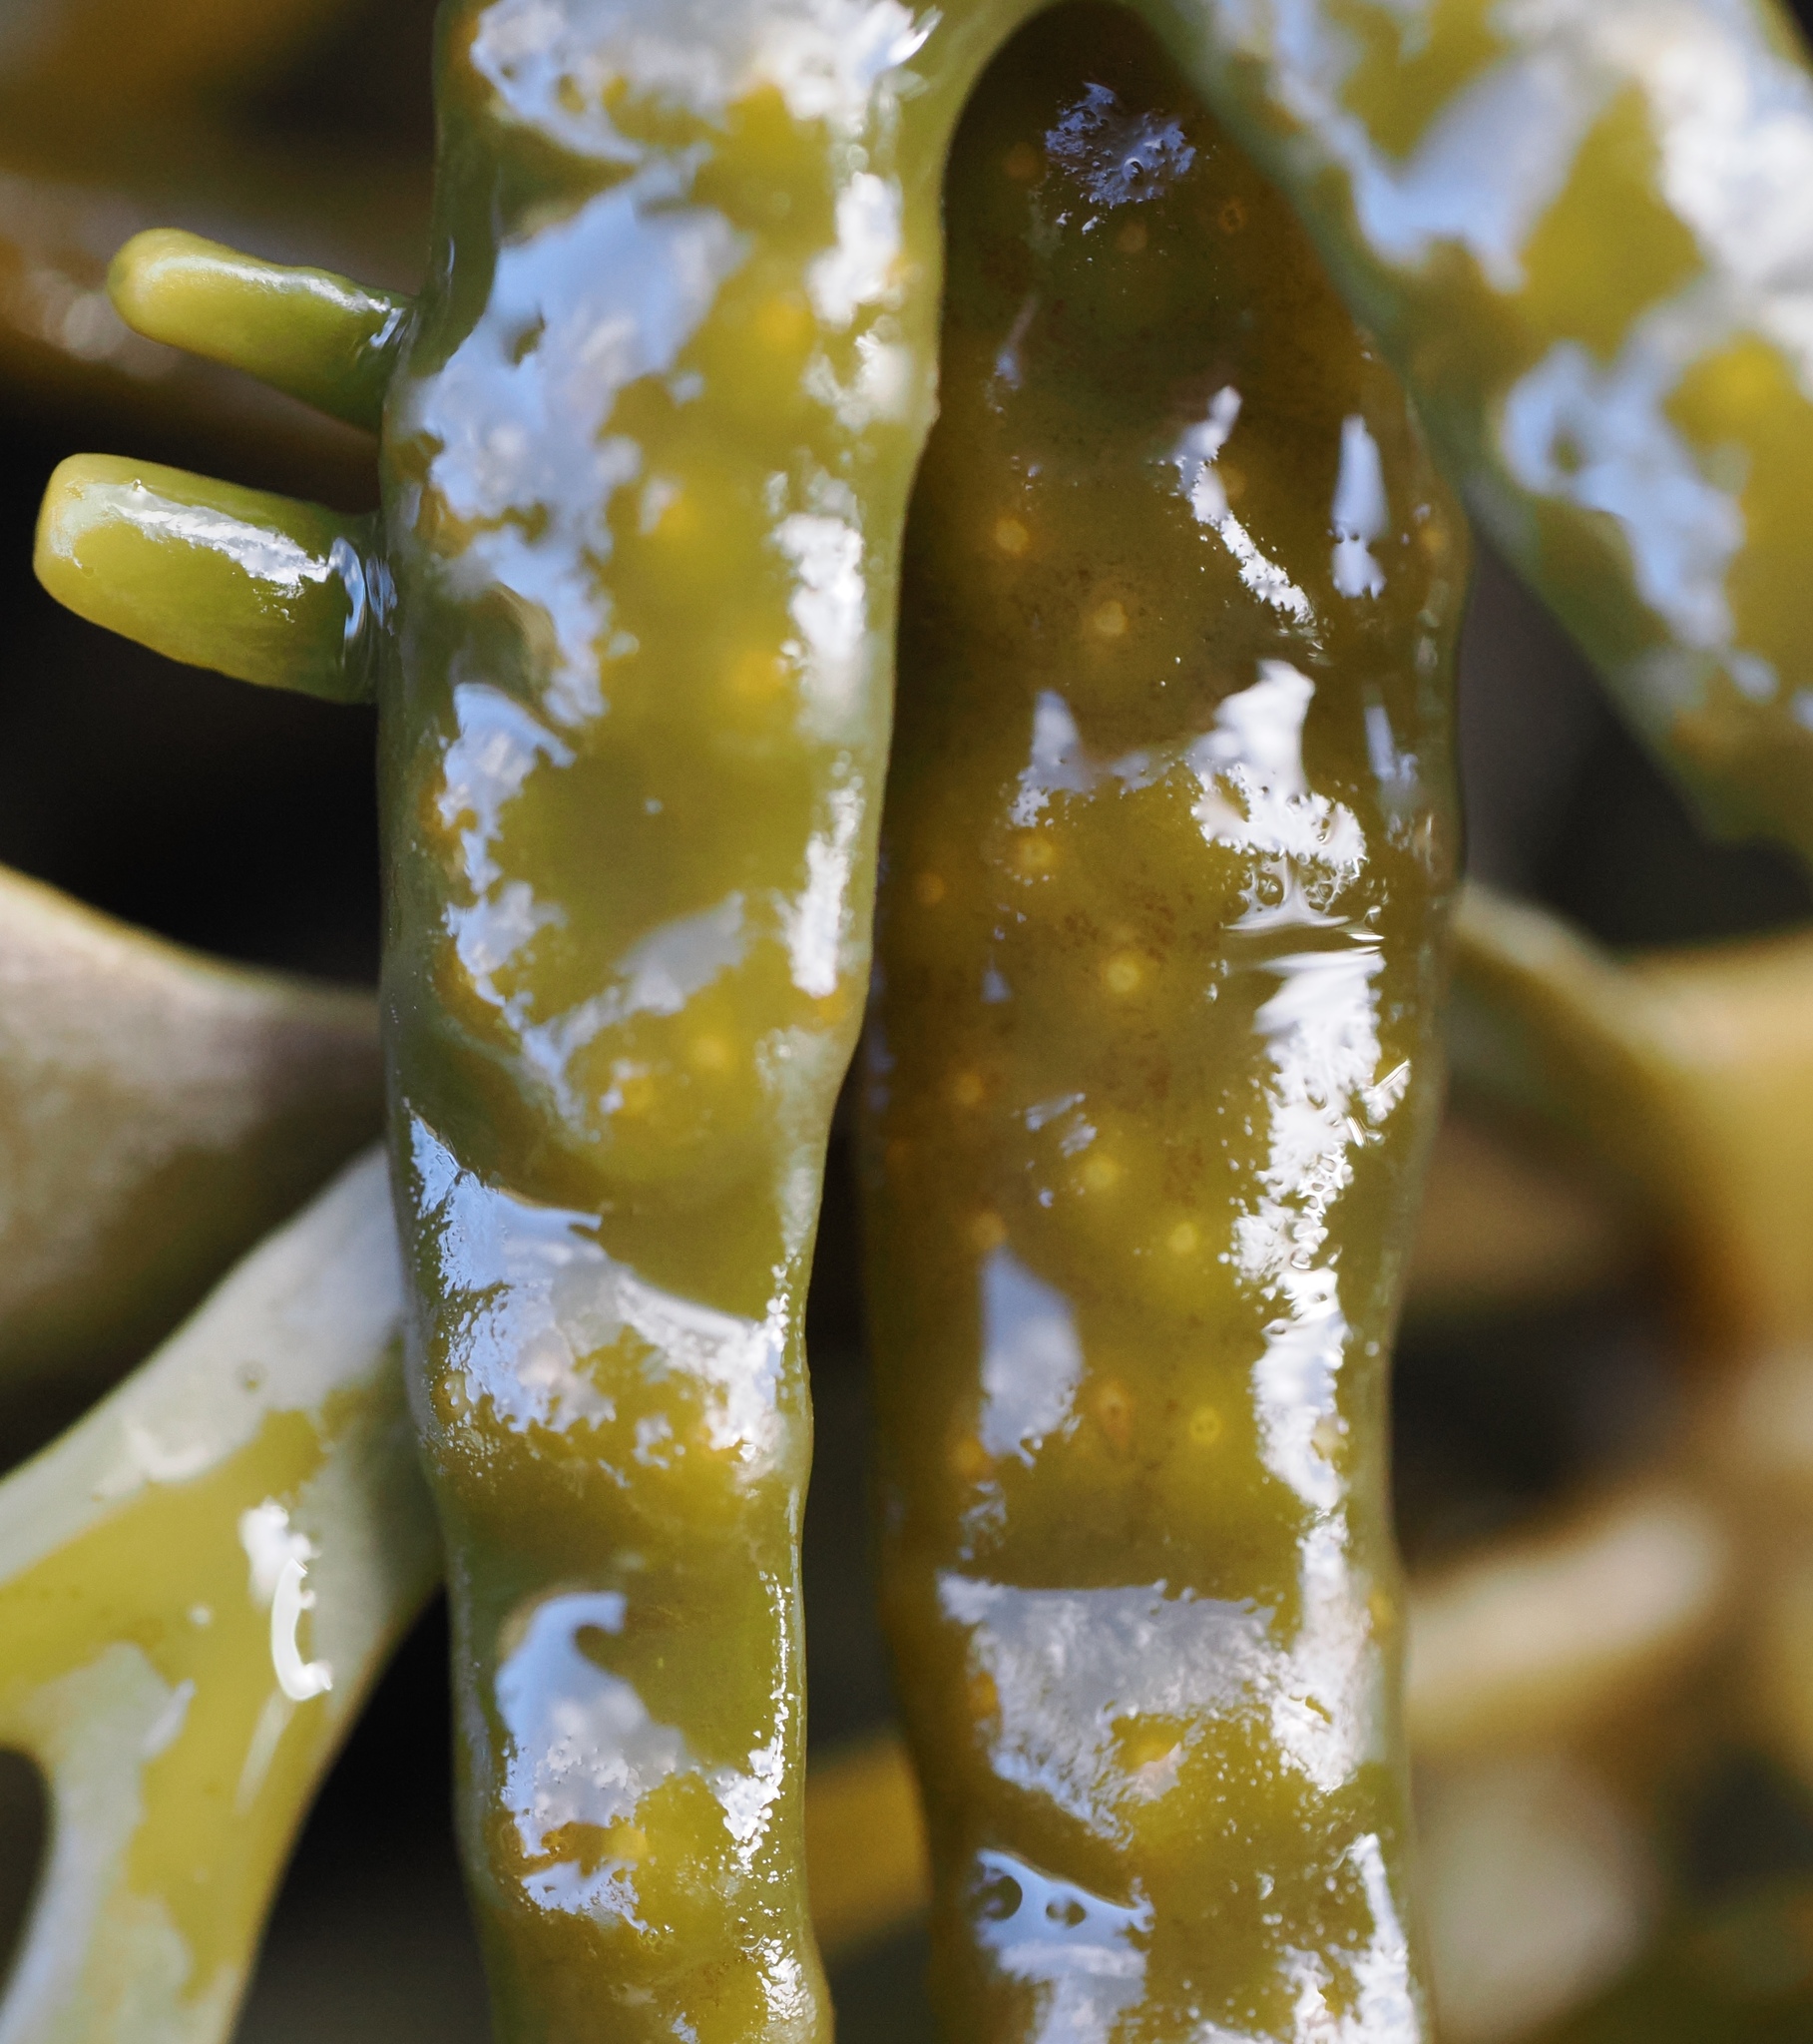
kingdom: Chromista
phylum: Ochrophyta
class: Phaeophyceae
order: Fucales
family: Fucaceae
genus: Silvetia
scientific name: Silvetia
